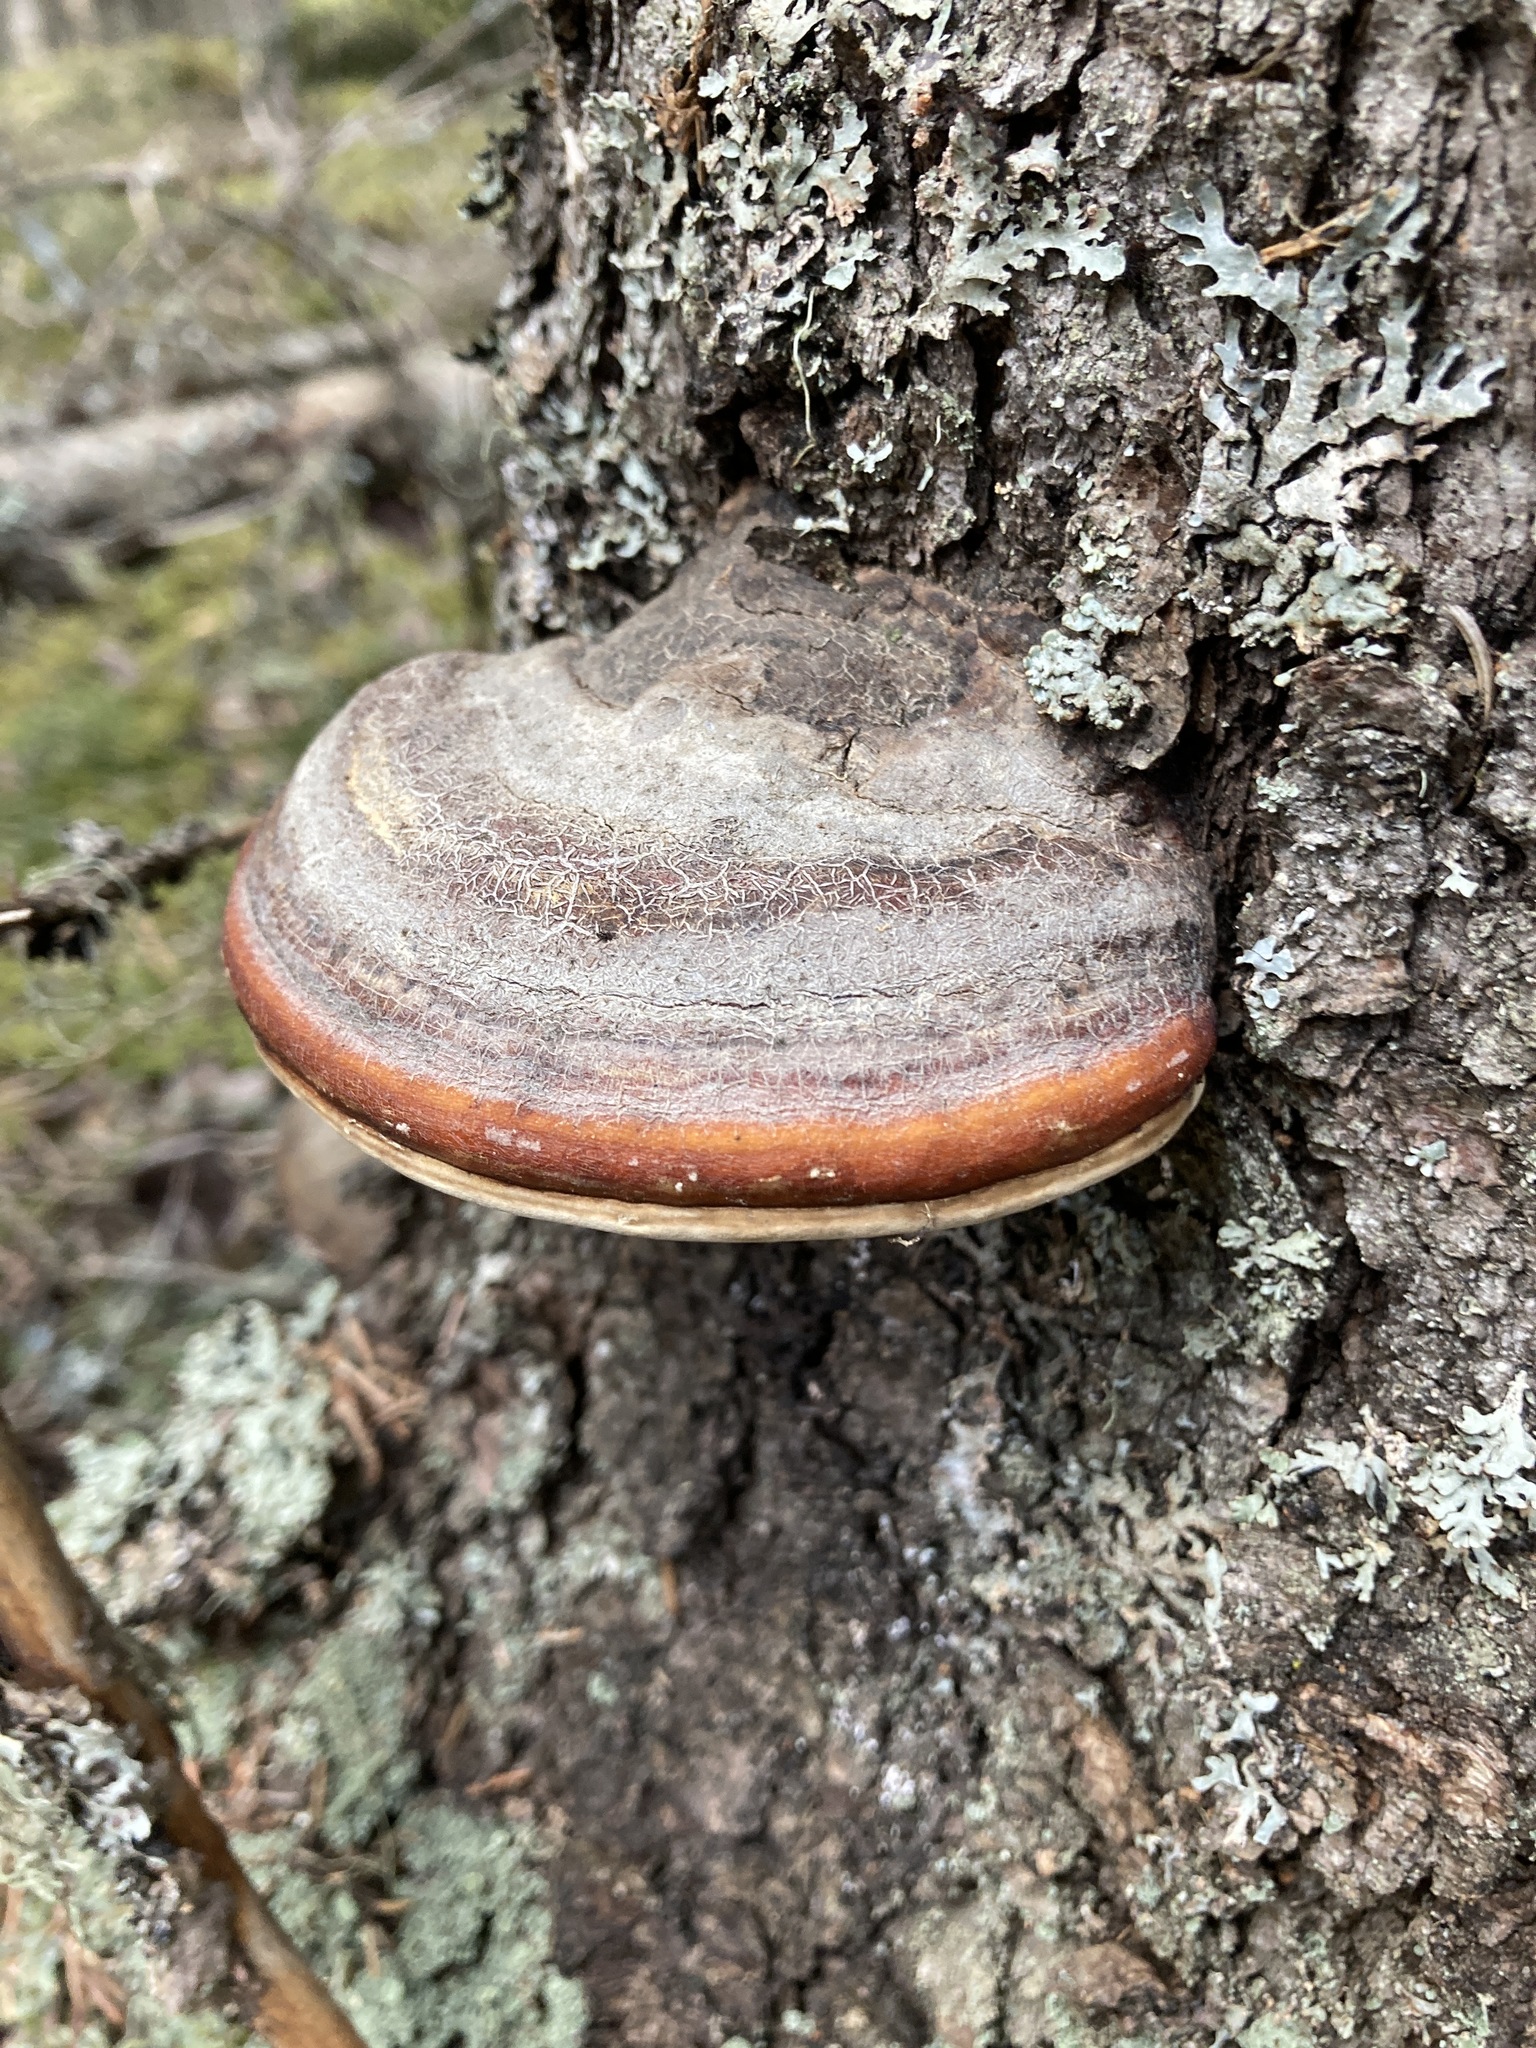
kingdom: Fungi
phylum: Basidiomycota
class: Agaricomycetes
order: Polyporales
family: Fomitopsidaceae
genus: Fomitopsis
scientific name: Fomitopsis mounceae
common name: Northern red belt
